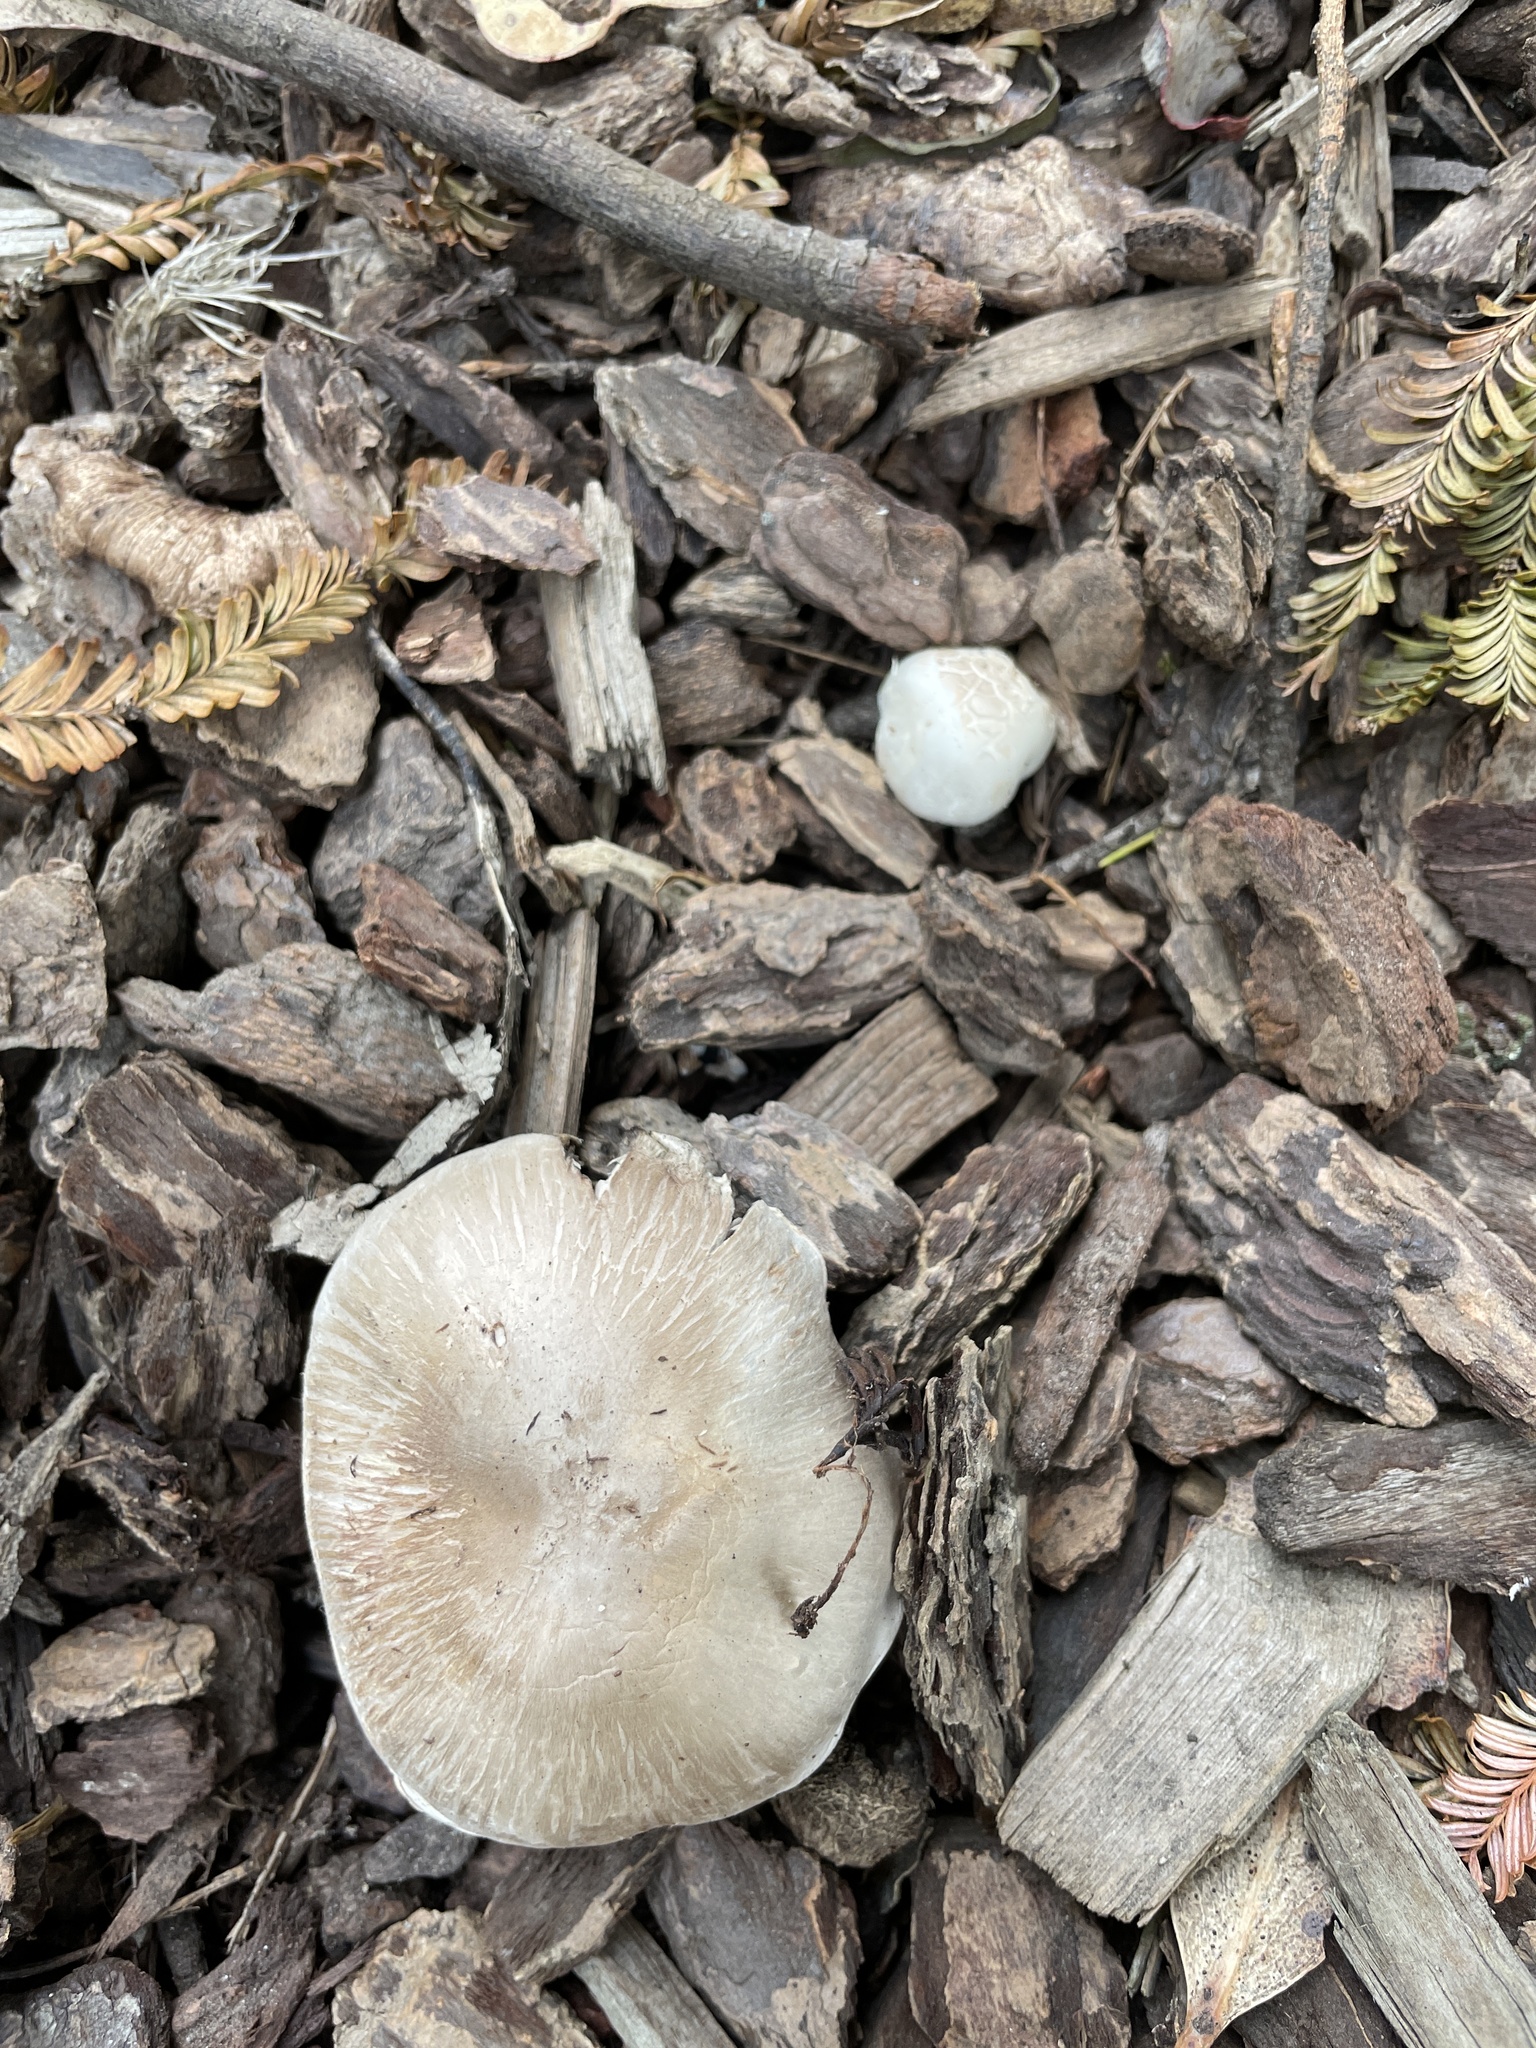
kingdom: Fungi
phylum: Basidiomycota
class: Agaricomycetes
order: Agaricales
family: Agaricaceae
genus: Agaricus
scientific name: Agaricus xanthodermus
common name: Yellow stainer
